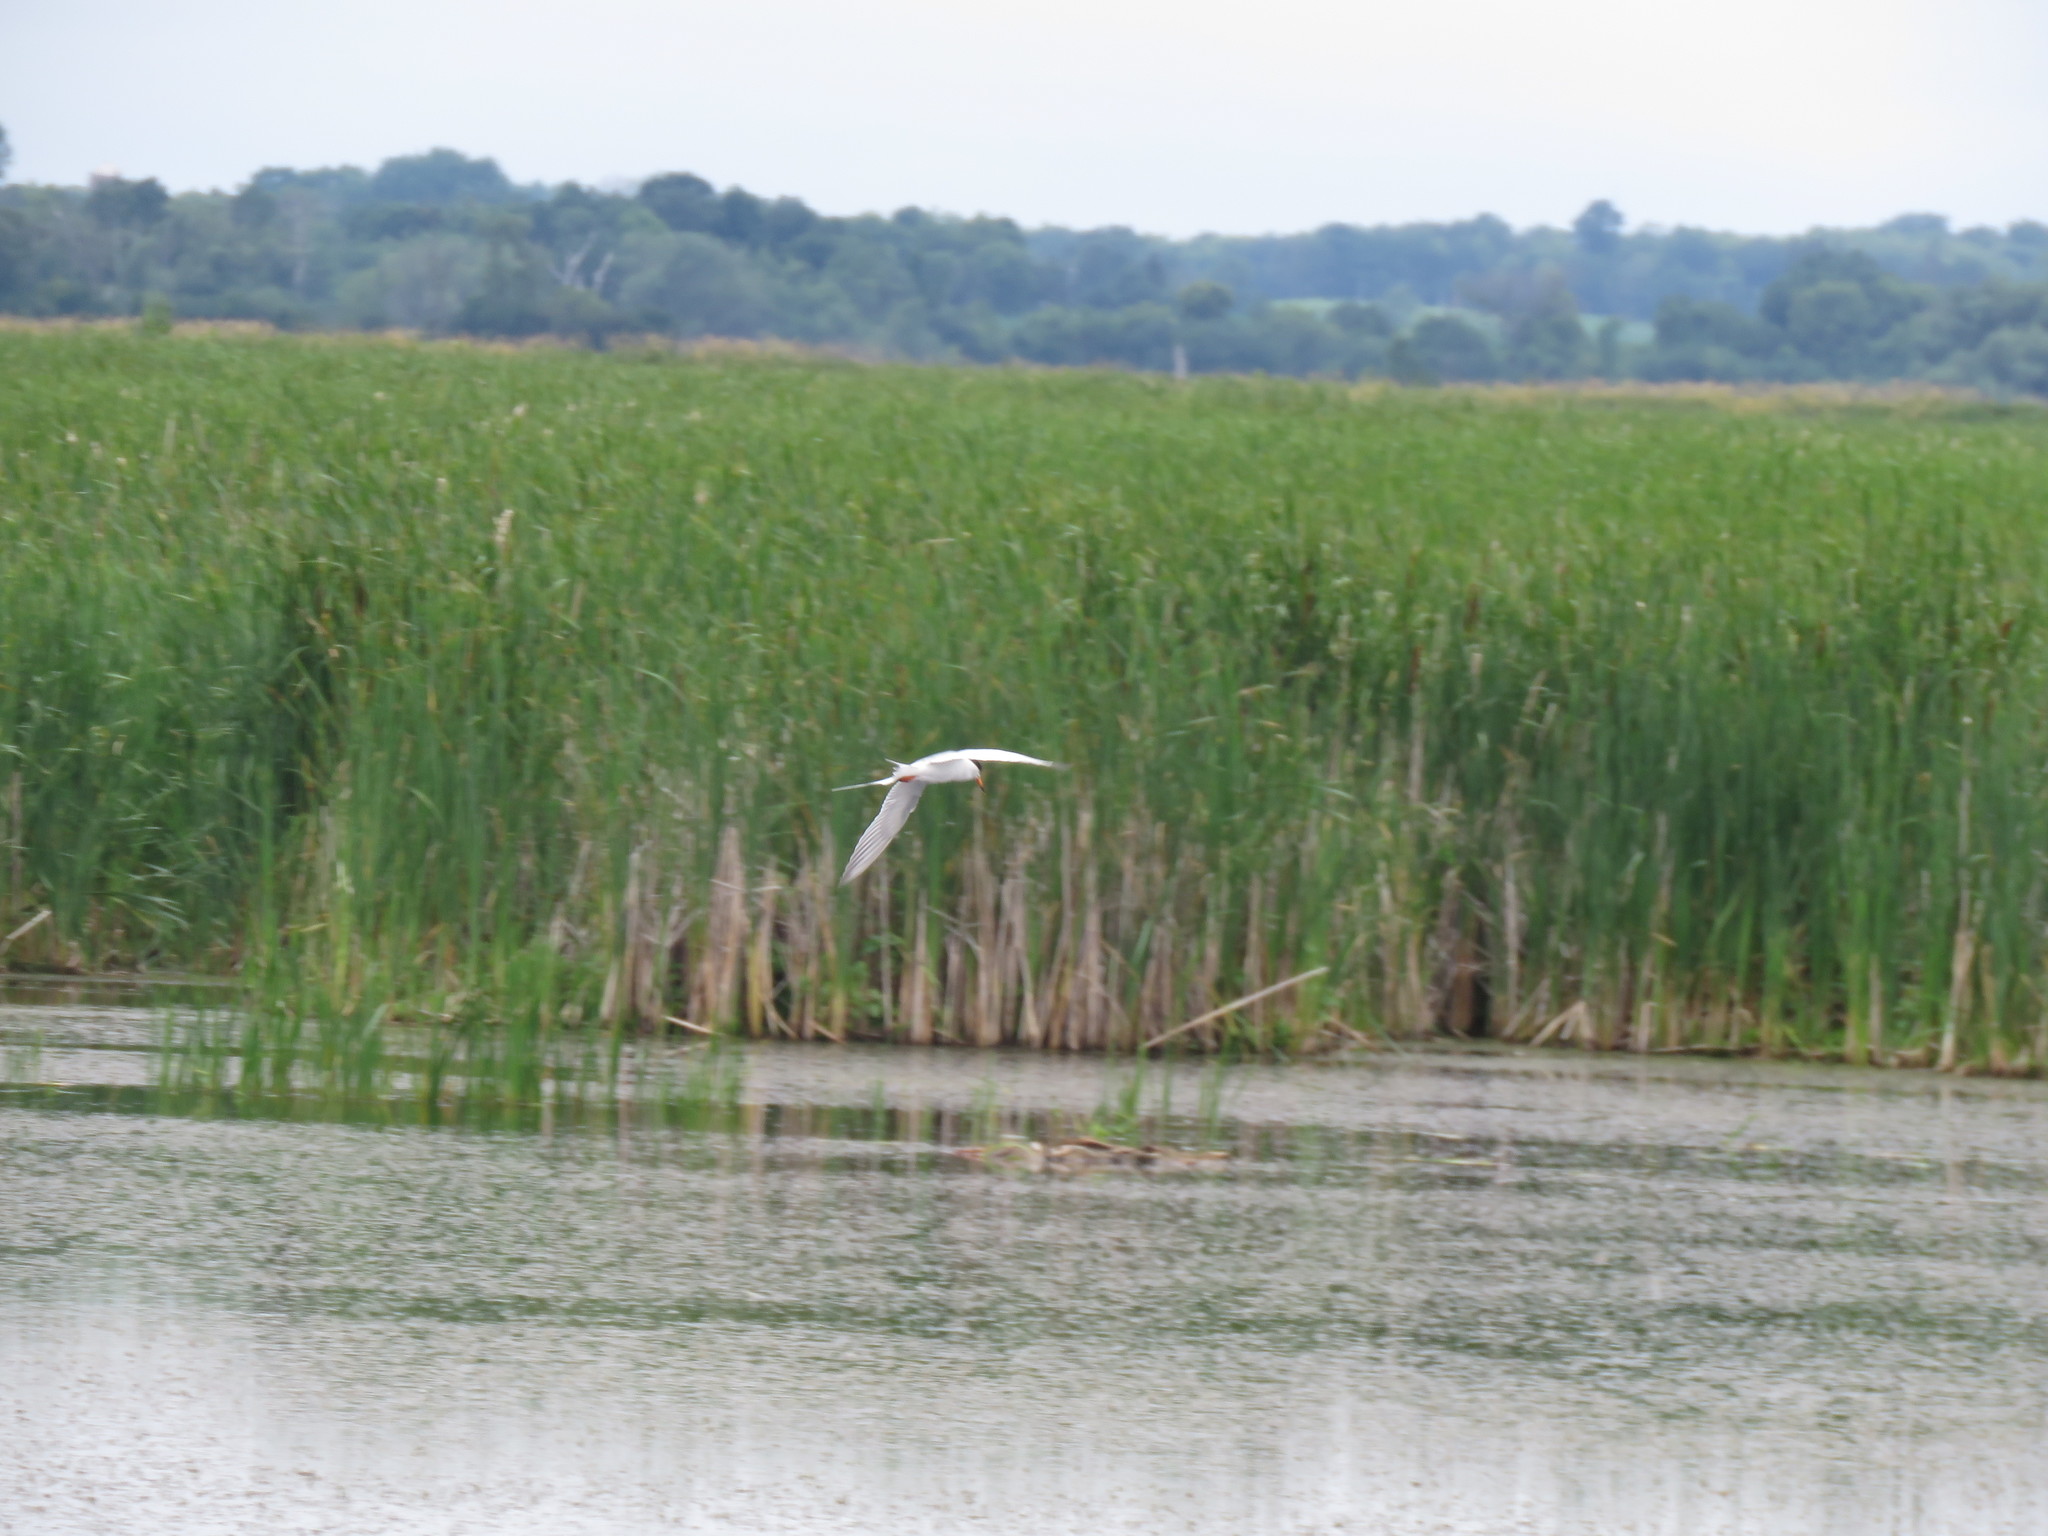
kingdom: Animalia
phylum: Chordata
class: Aves
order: Charadriiformes
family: Laridae
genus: Sterna
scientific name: Sterna forsteri
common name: Forster's tern
